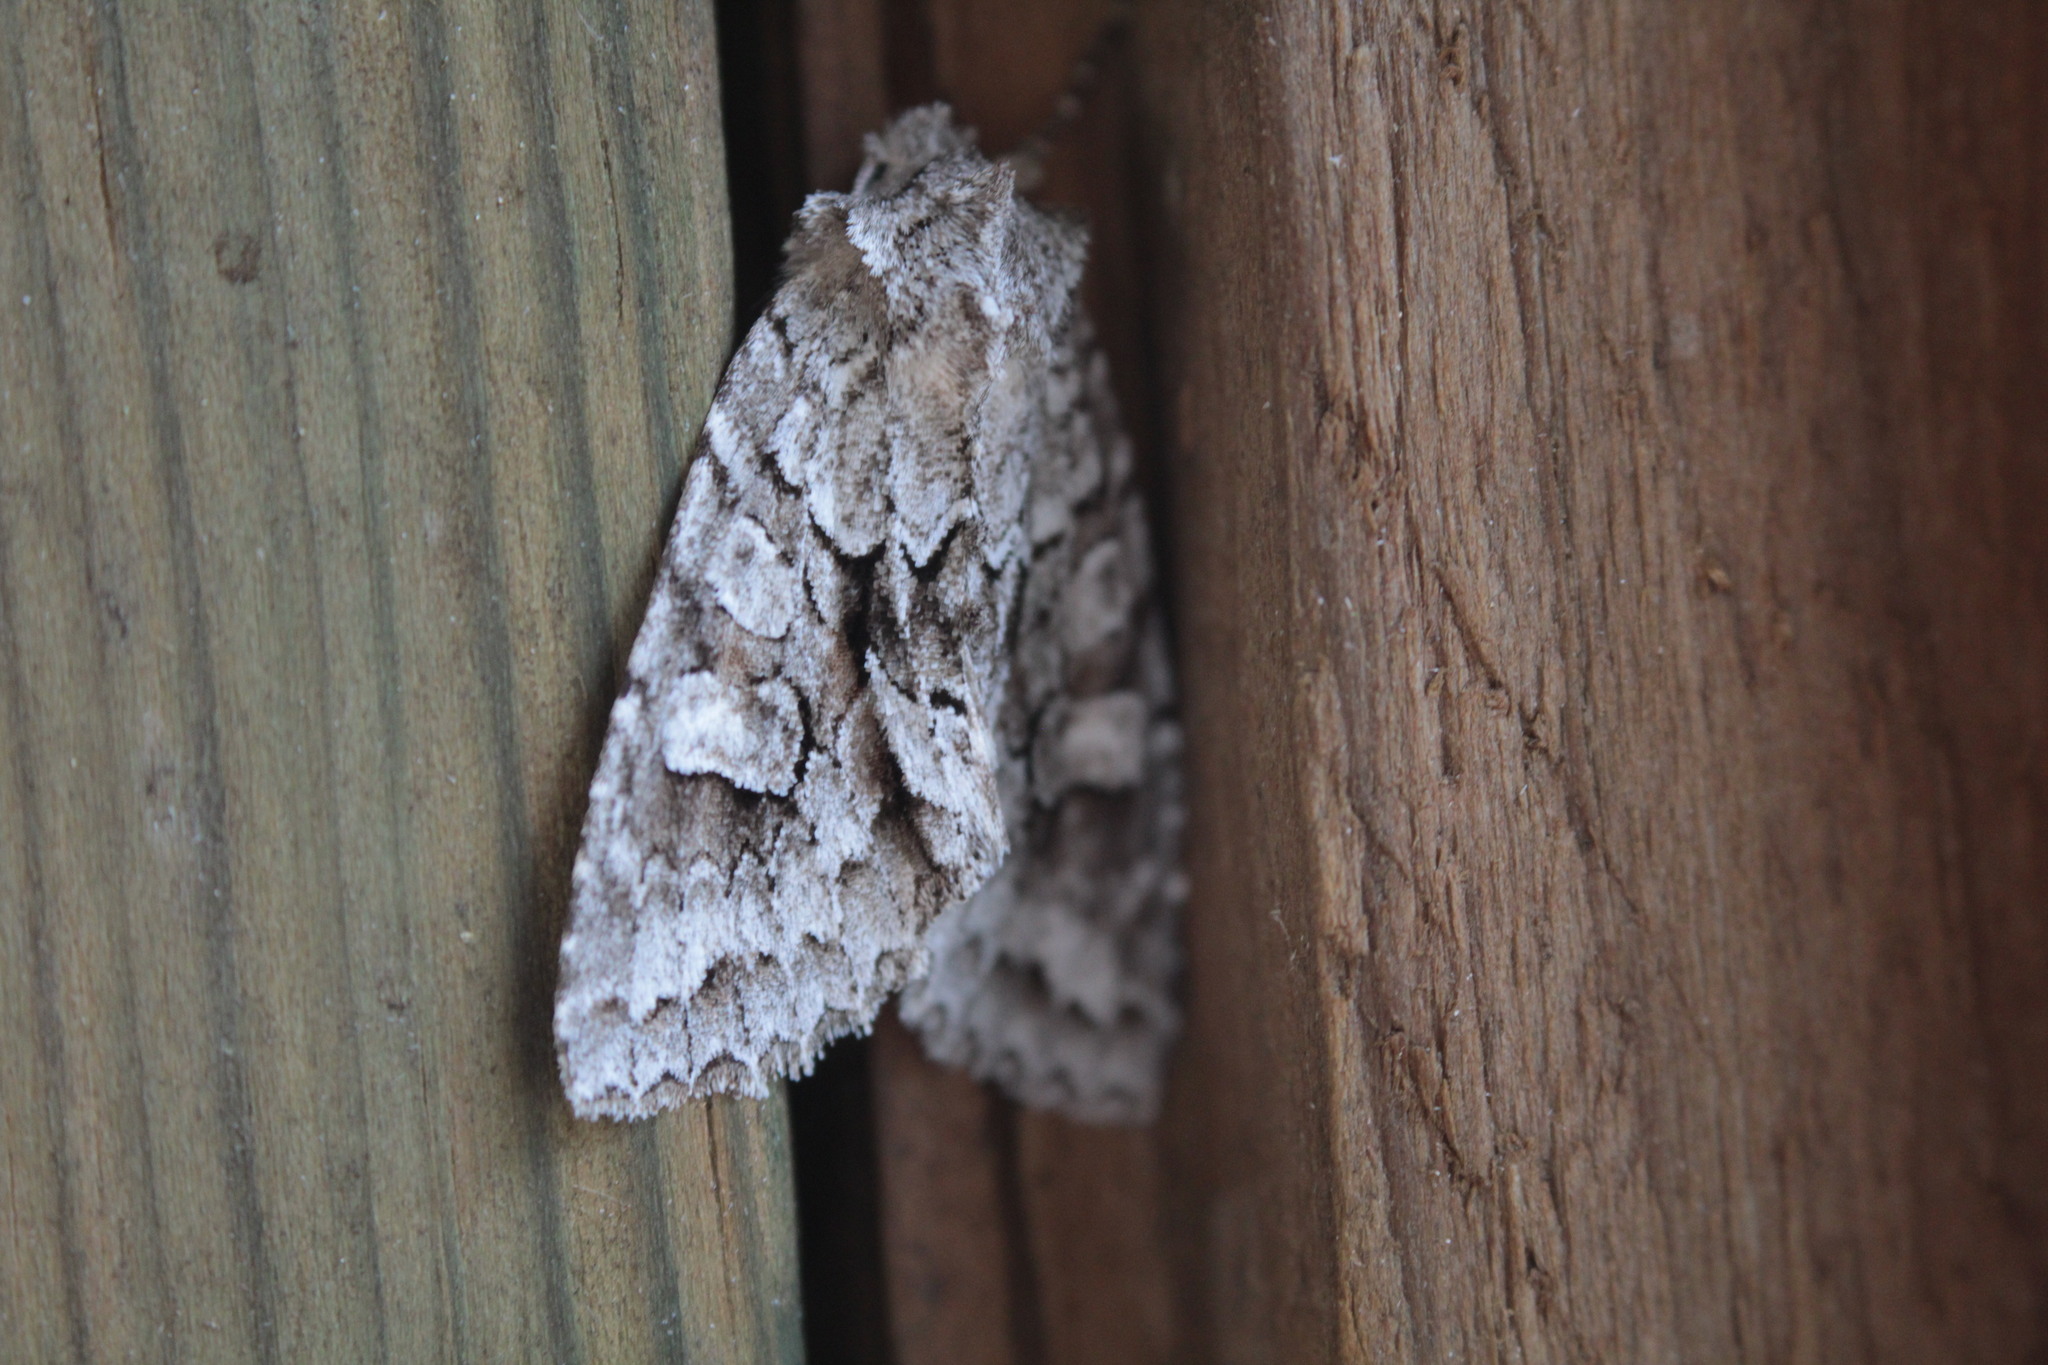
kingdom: Animalia
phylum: Arthropoda
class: Insecta
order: Lepidoptera
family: Noctuidae
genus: Xylotype
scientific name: Xylotype arcadia
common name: Acadian sallow
